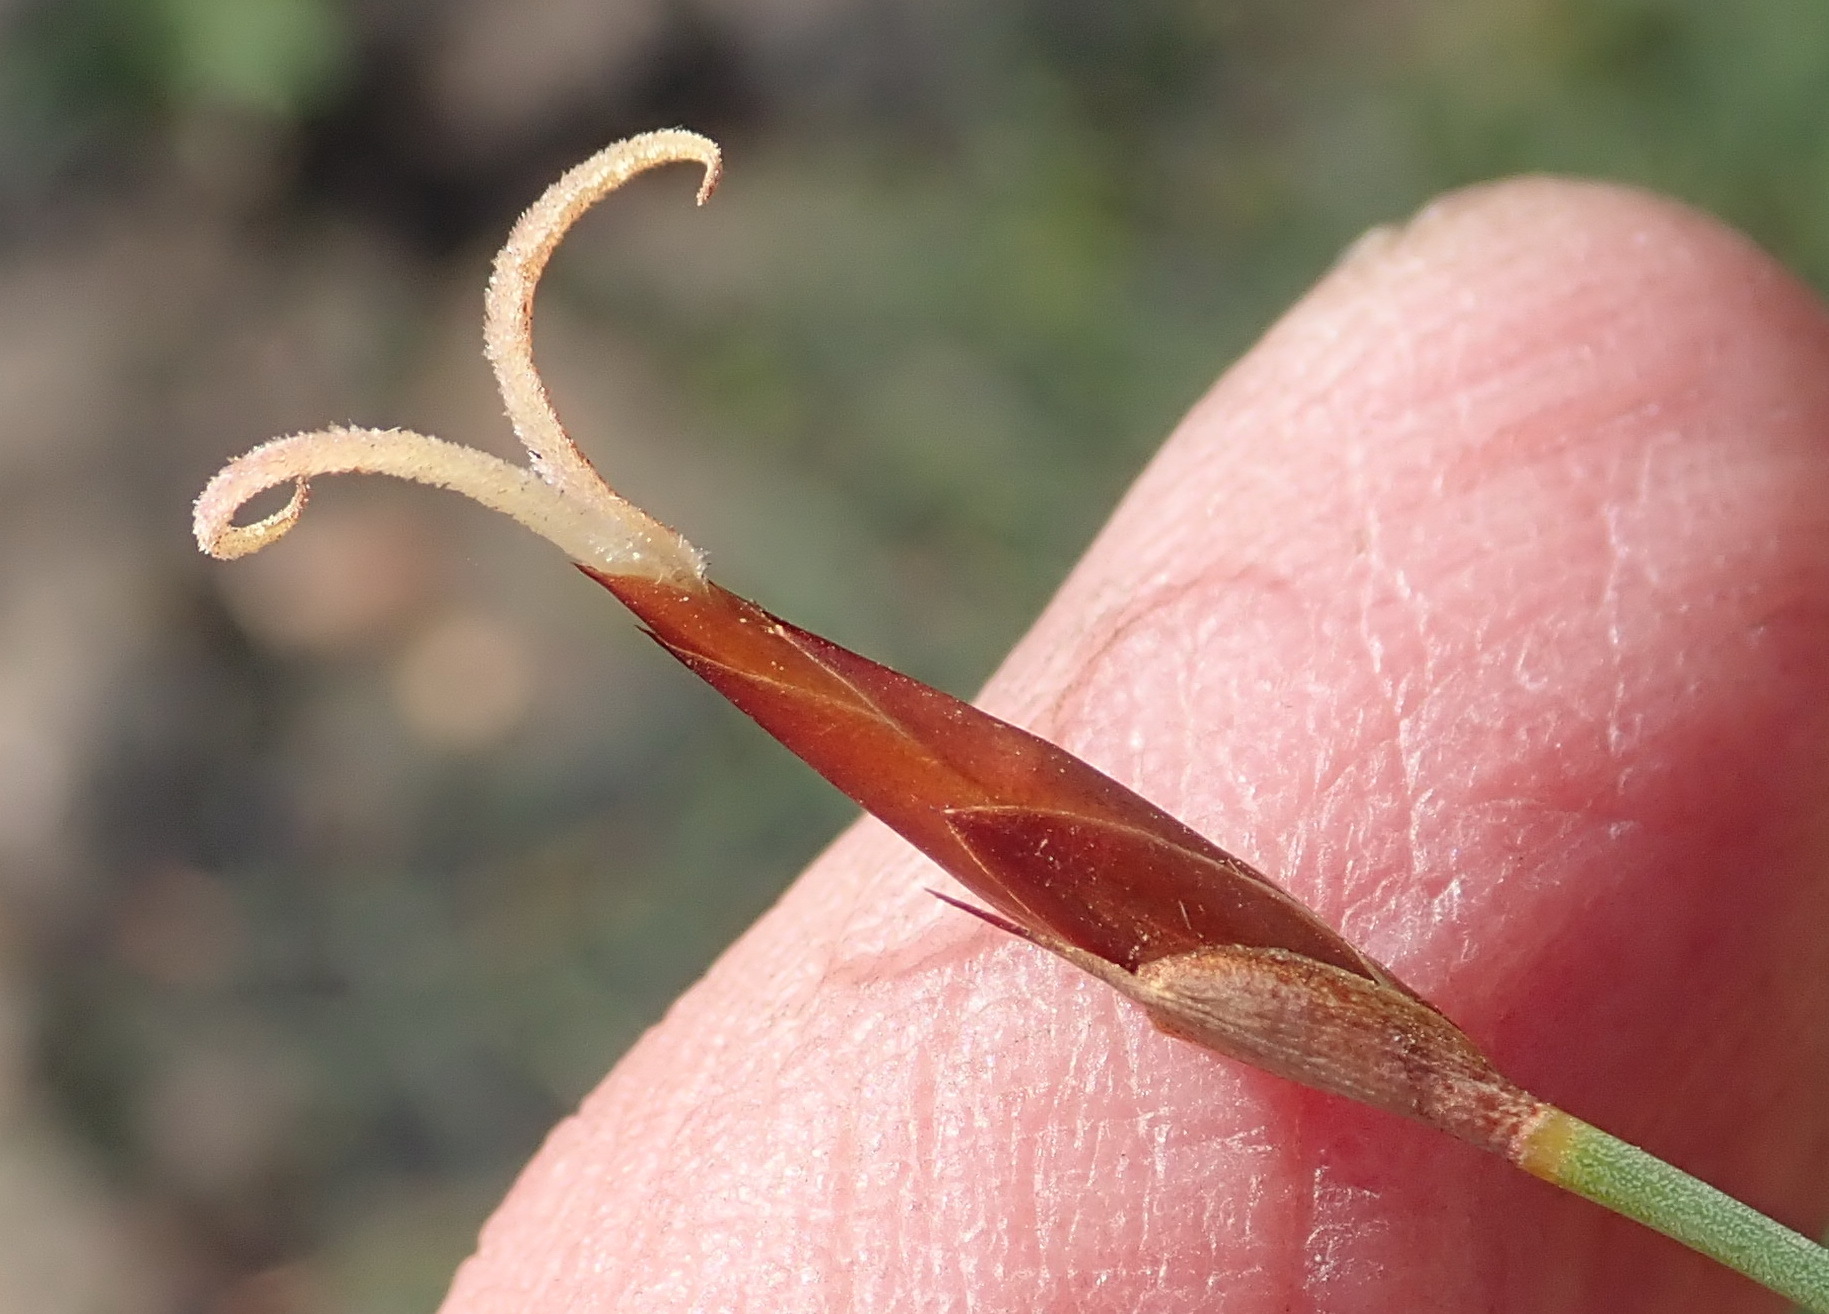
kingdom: Plantae
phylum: Tracheophyta
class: Liliopsida
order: Poales
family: Restionaceae
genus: Hypodiscus
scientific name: Hypodiscus striatus
